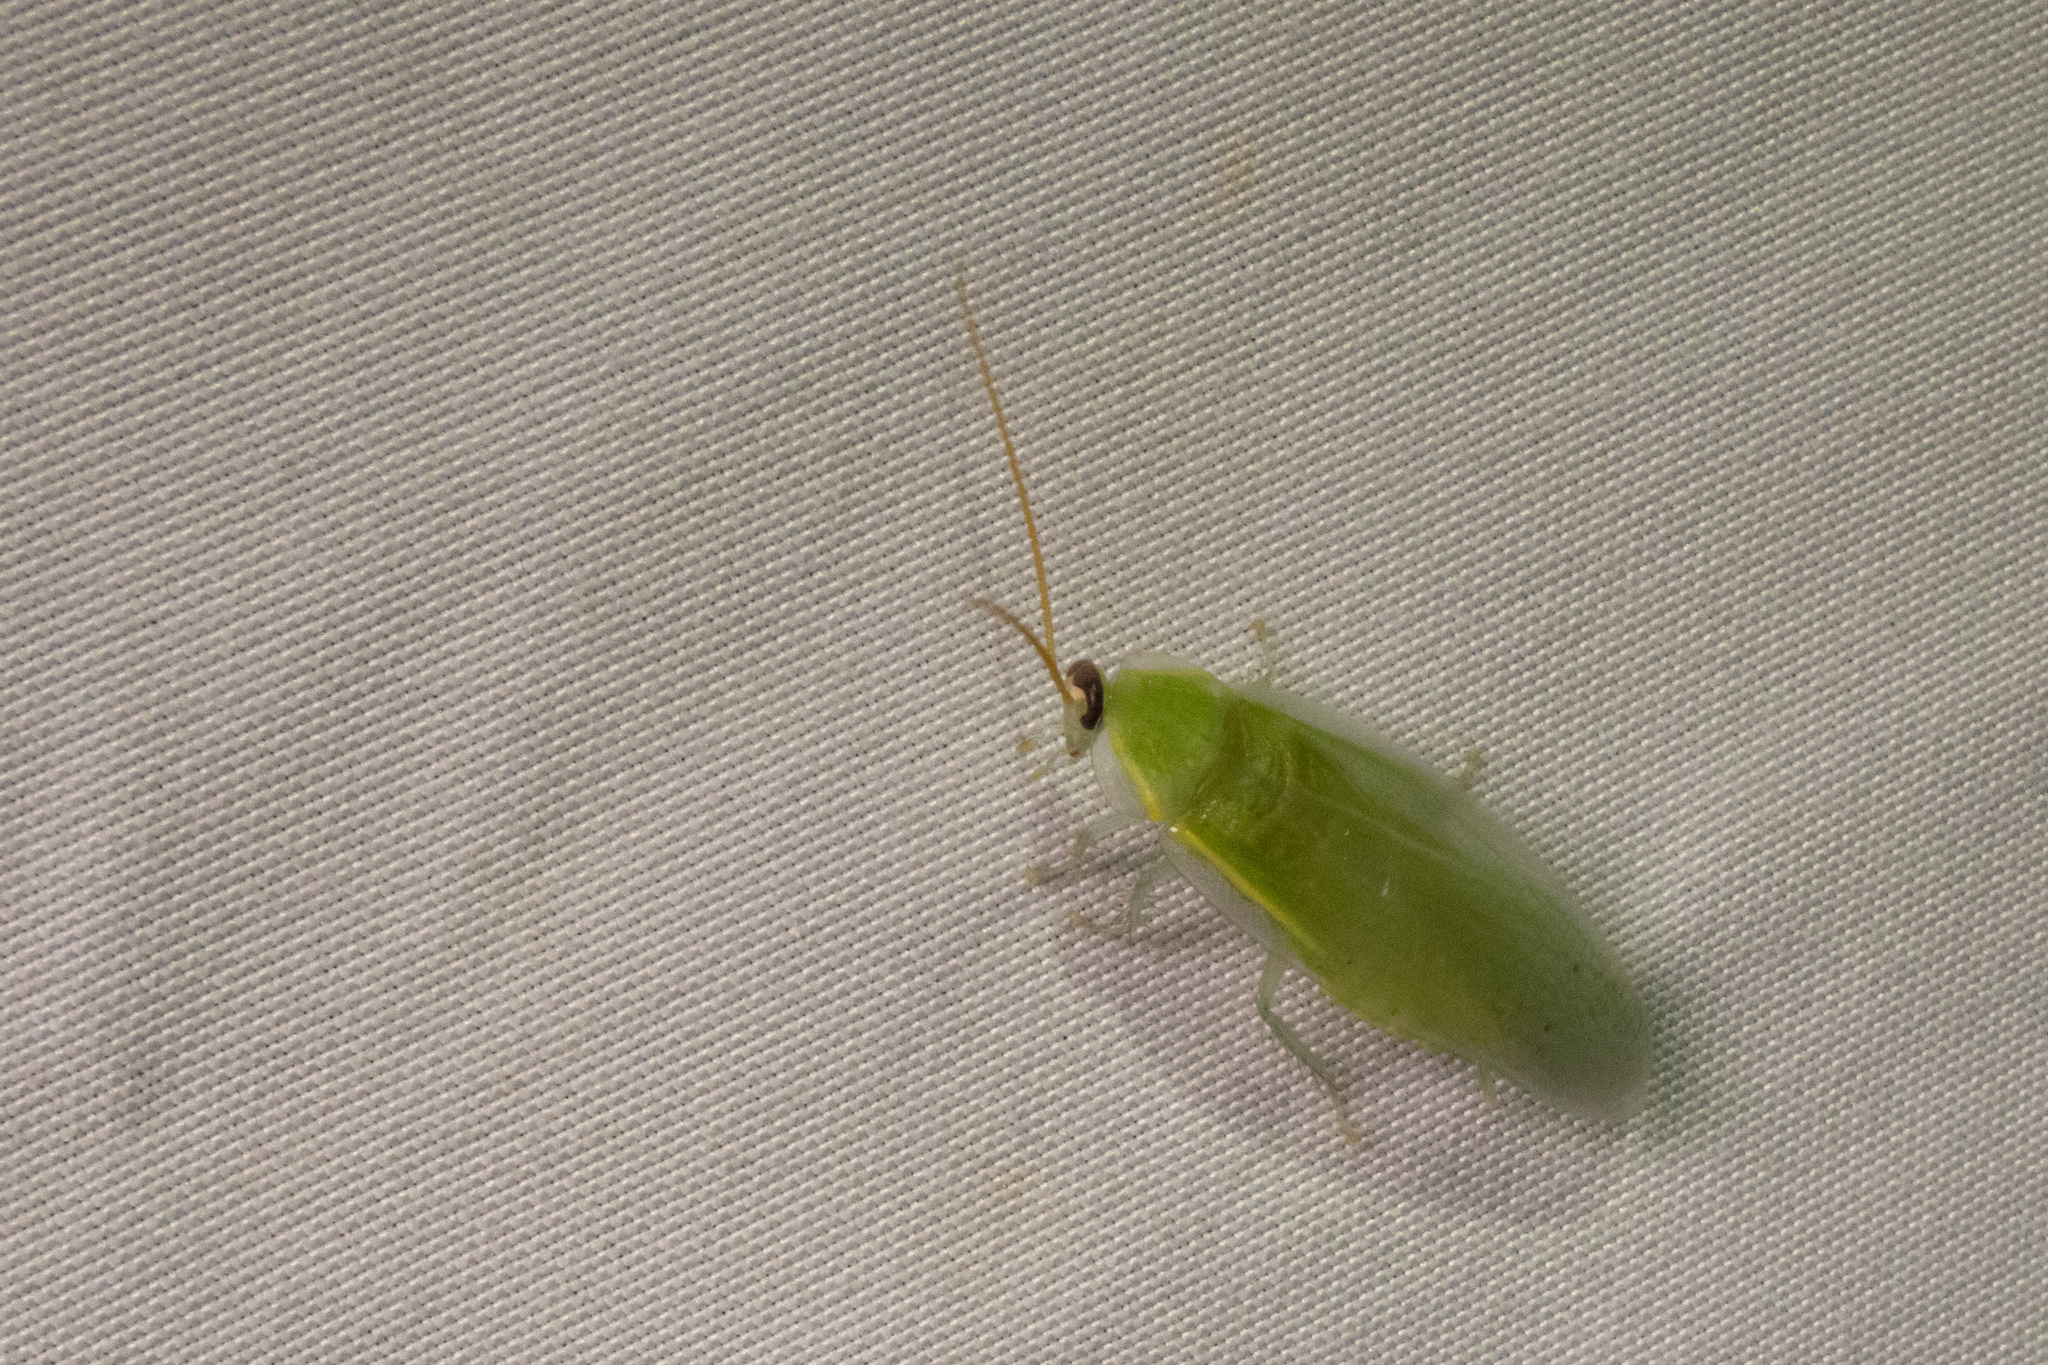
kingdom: Animalia
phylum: Arthropoda
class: Insecta
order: Blattodea
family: Blaberidae
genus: Panchlora
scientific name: Panchlora nivea
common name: Cuban cockroach
